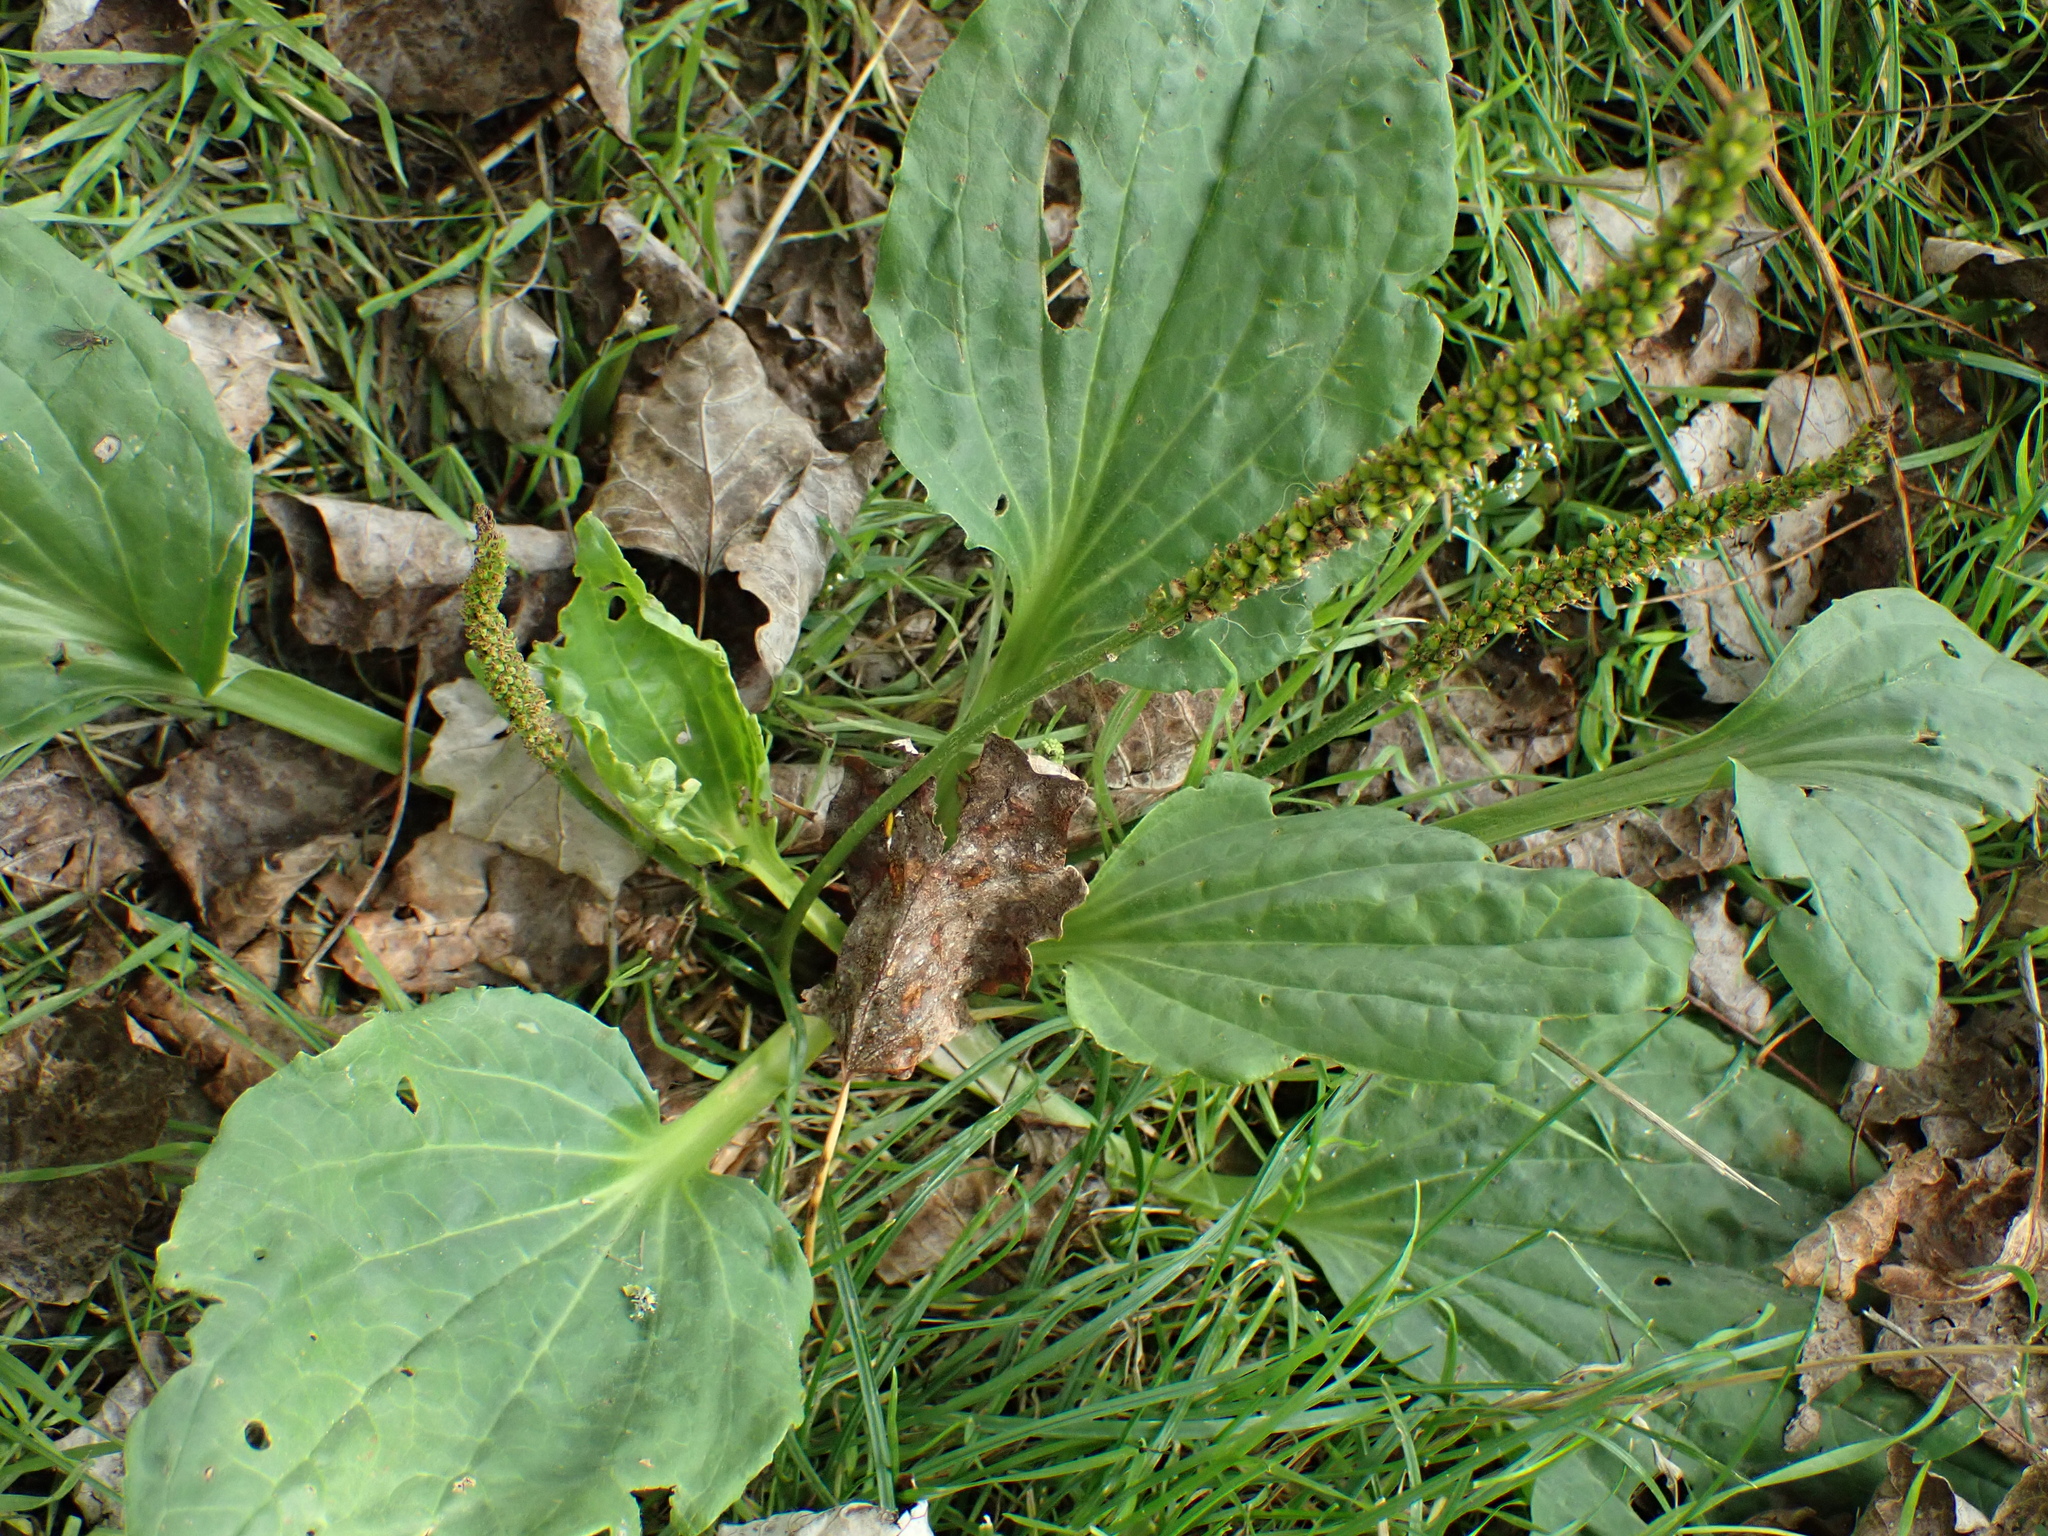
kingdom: Plantae
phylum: Tracheophyta
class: Magnoliopsida
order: Lamiales
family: Plantaginaceae
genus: Plantago
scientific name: Plantago major
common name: Common plantain
